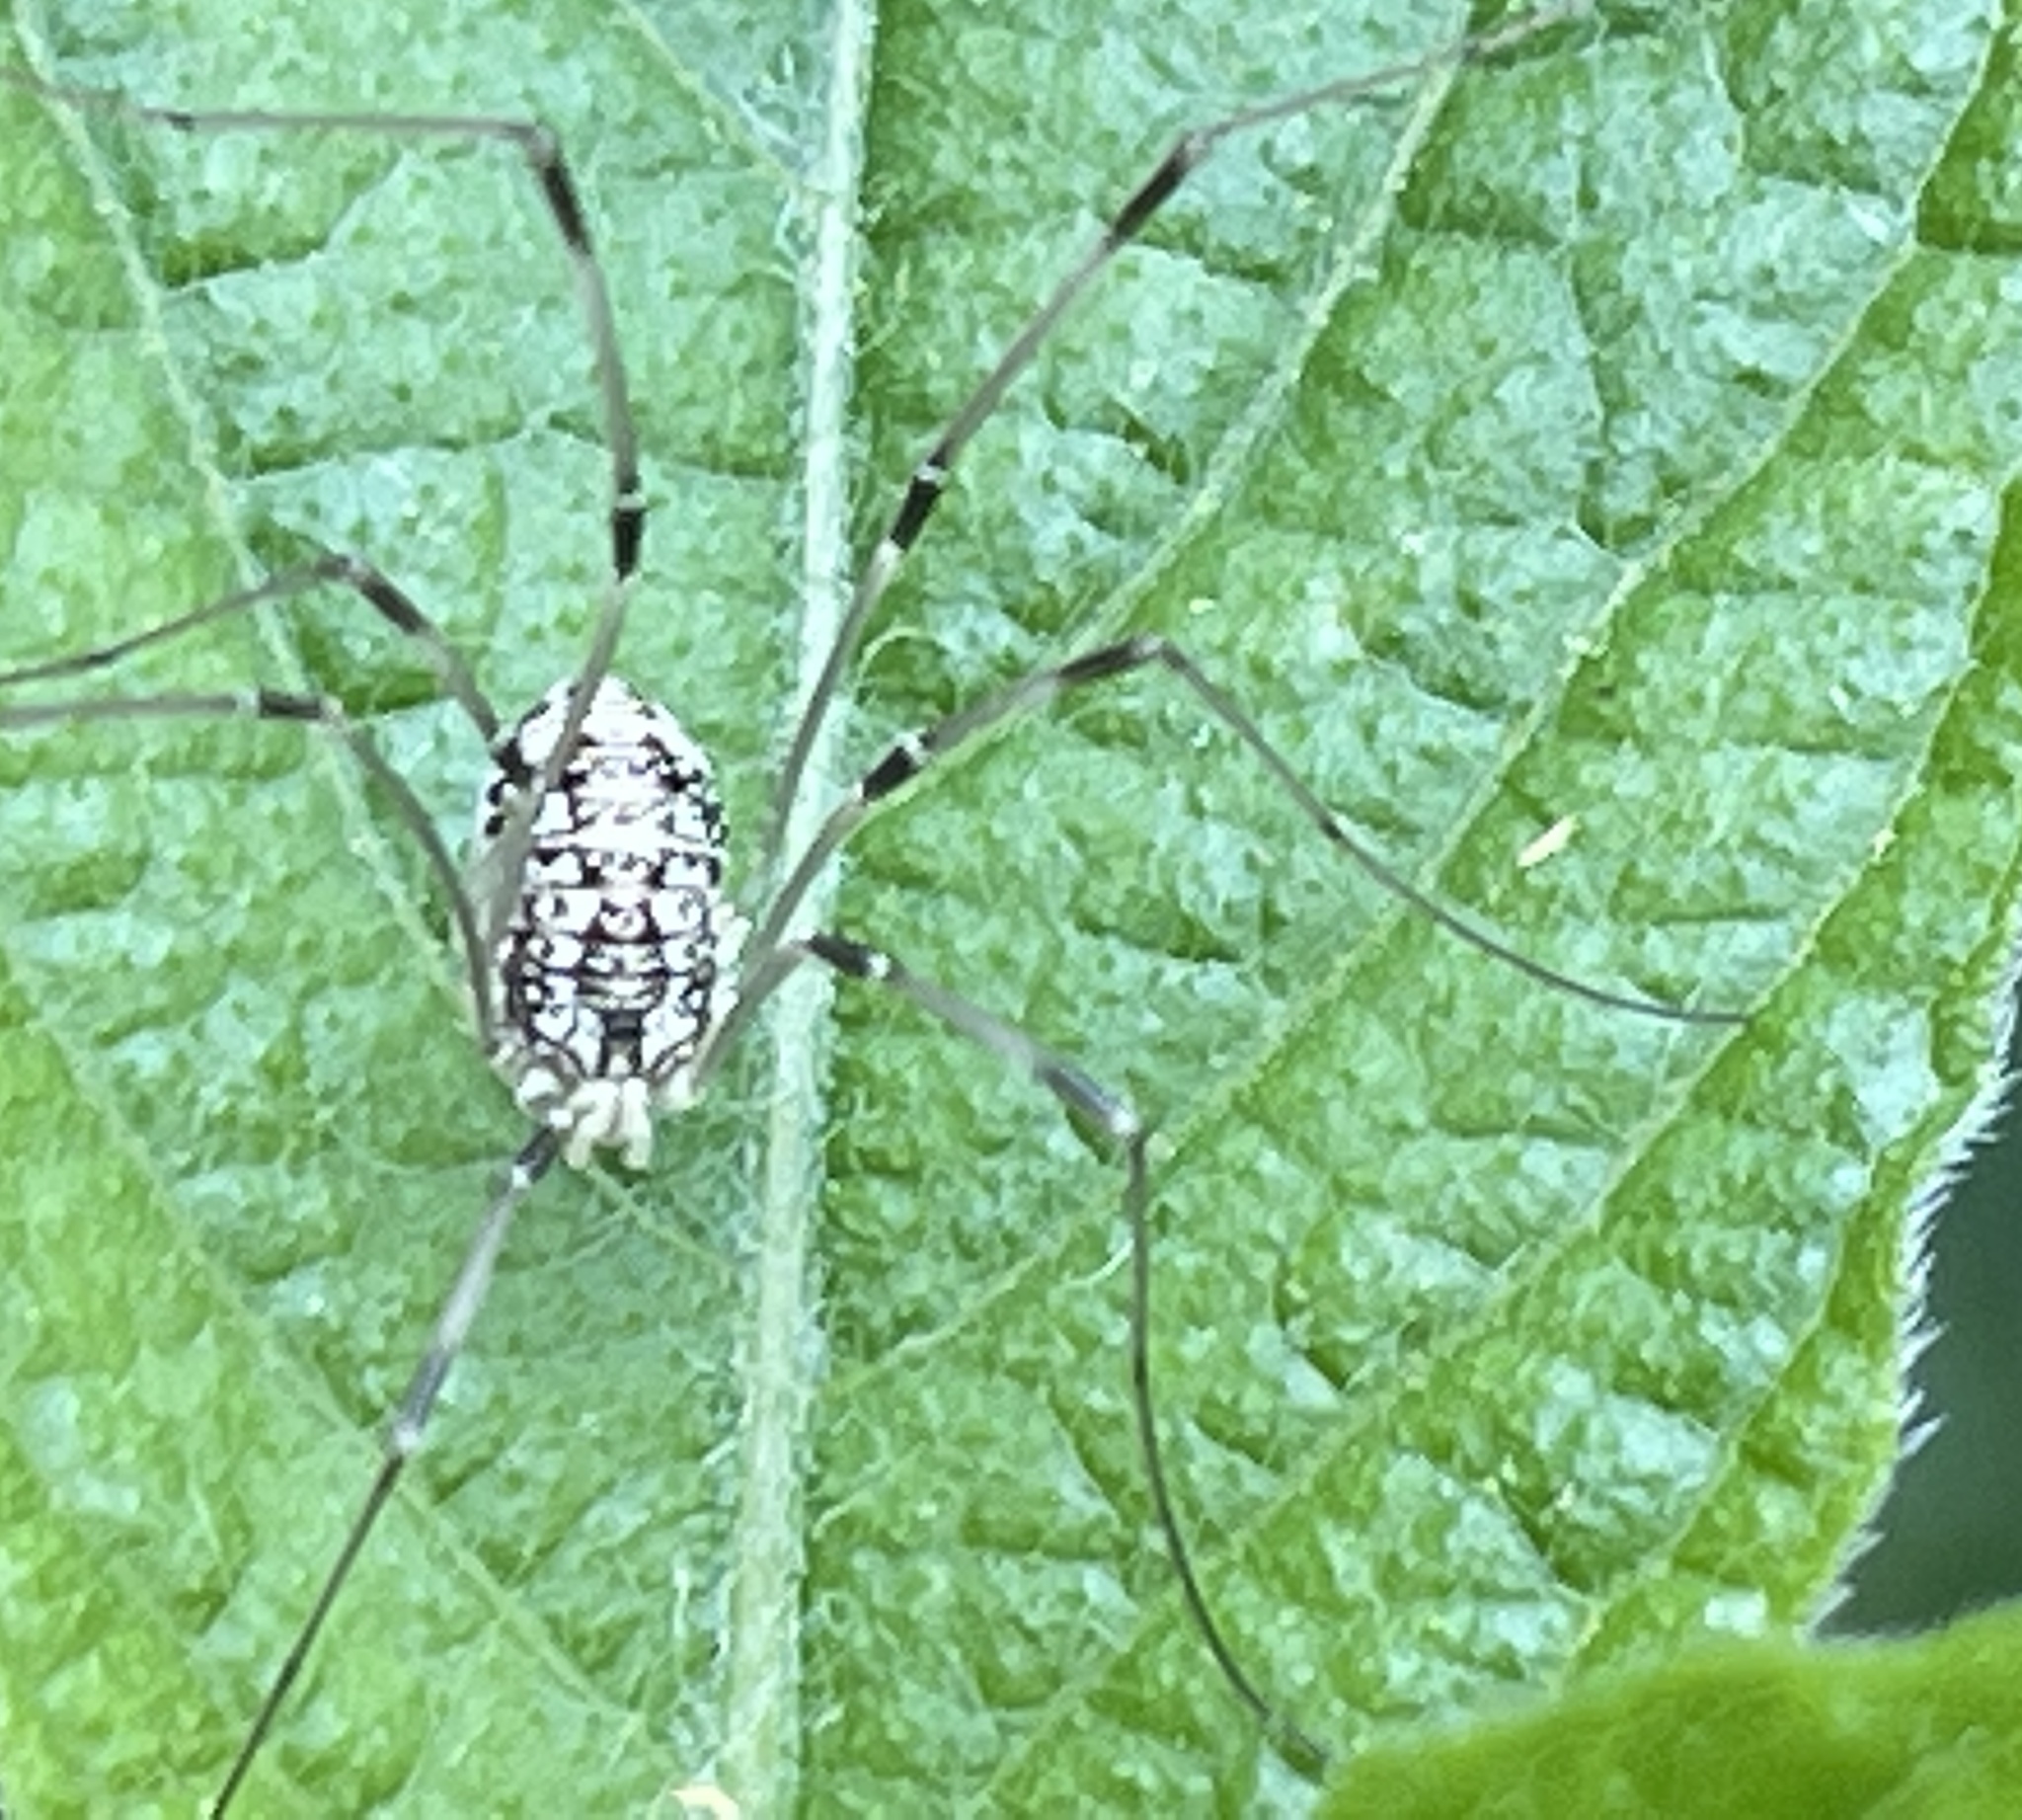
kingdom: Animalia
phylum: Arthropoda
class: Arachnida
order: Opiliones
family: Sclerosomatidae
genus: Leiobunum
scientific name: Leiobunum vittatum
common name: Eastern harvestman
